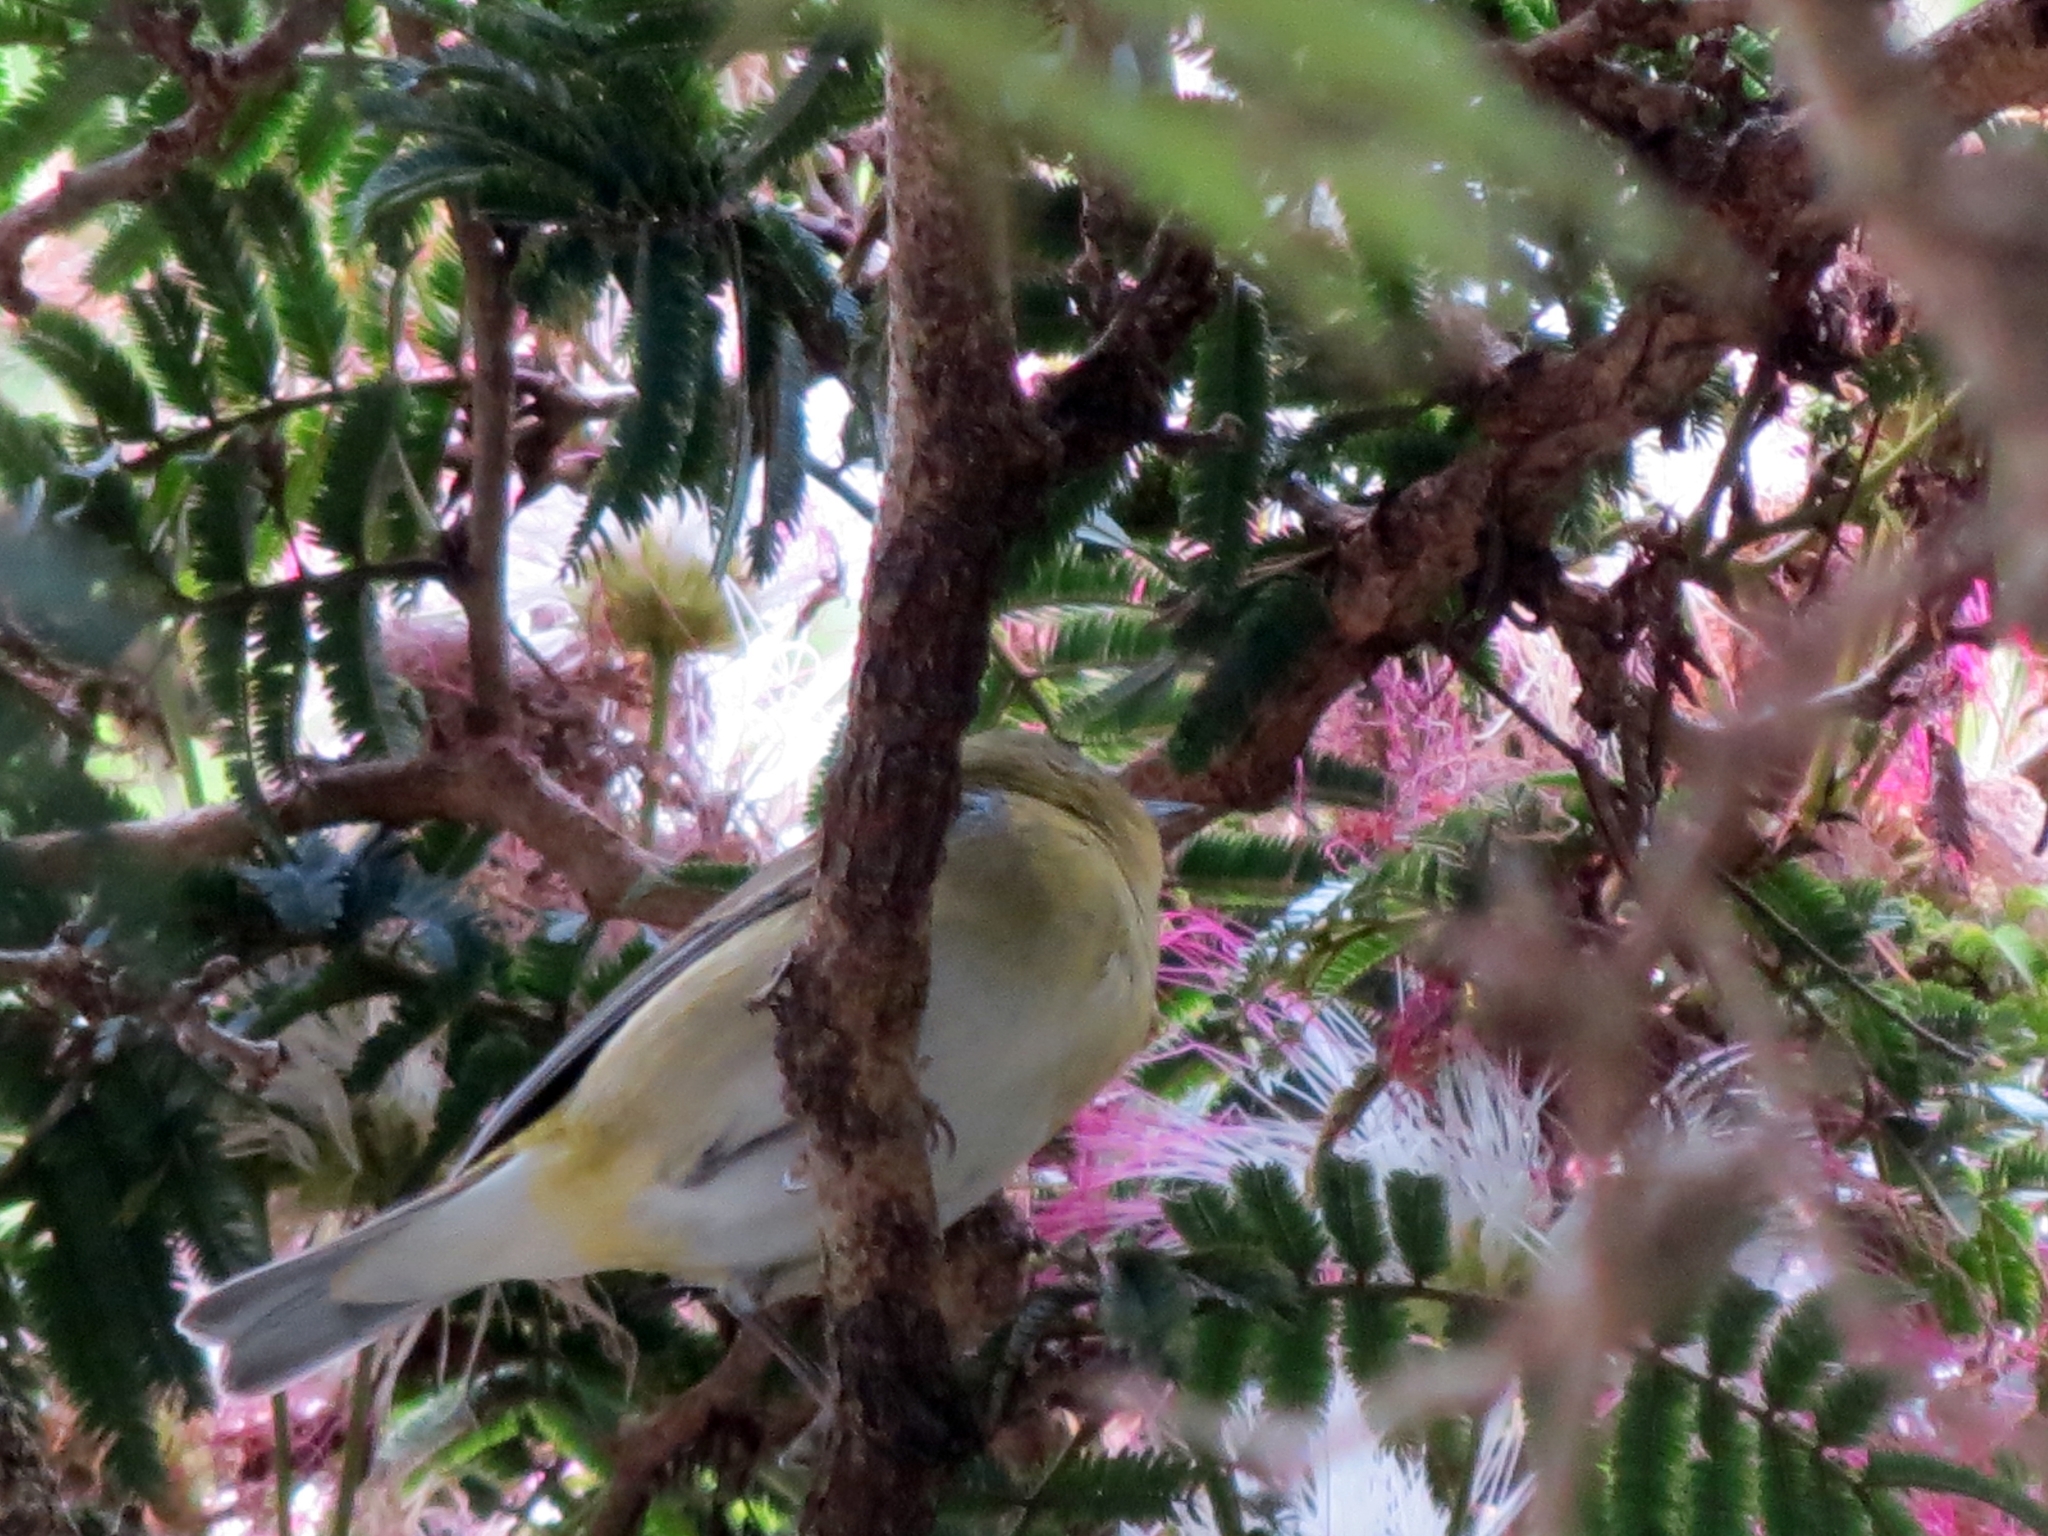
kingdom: Animalia
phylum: Chordata
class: Aves
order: Passeriformes
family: Parulidae
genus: Leiothlypis
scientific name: Leiothlypis peregrina
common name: Tennessee warbler
